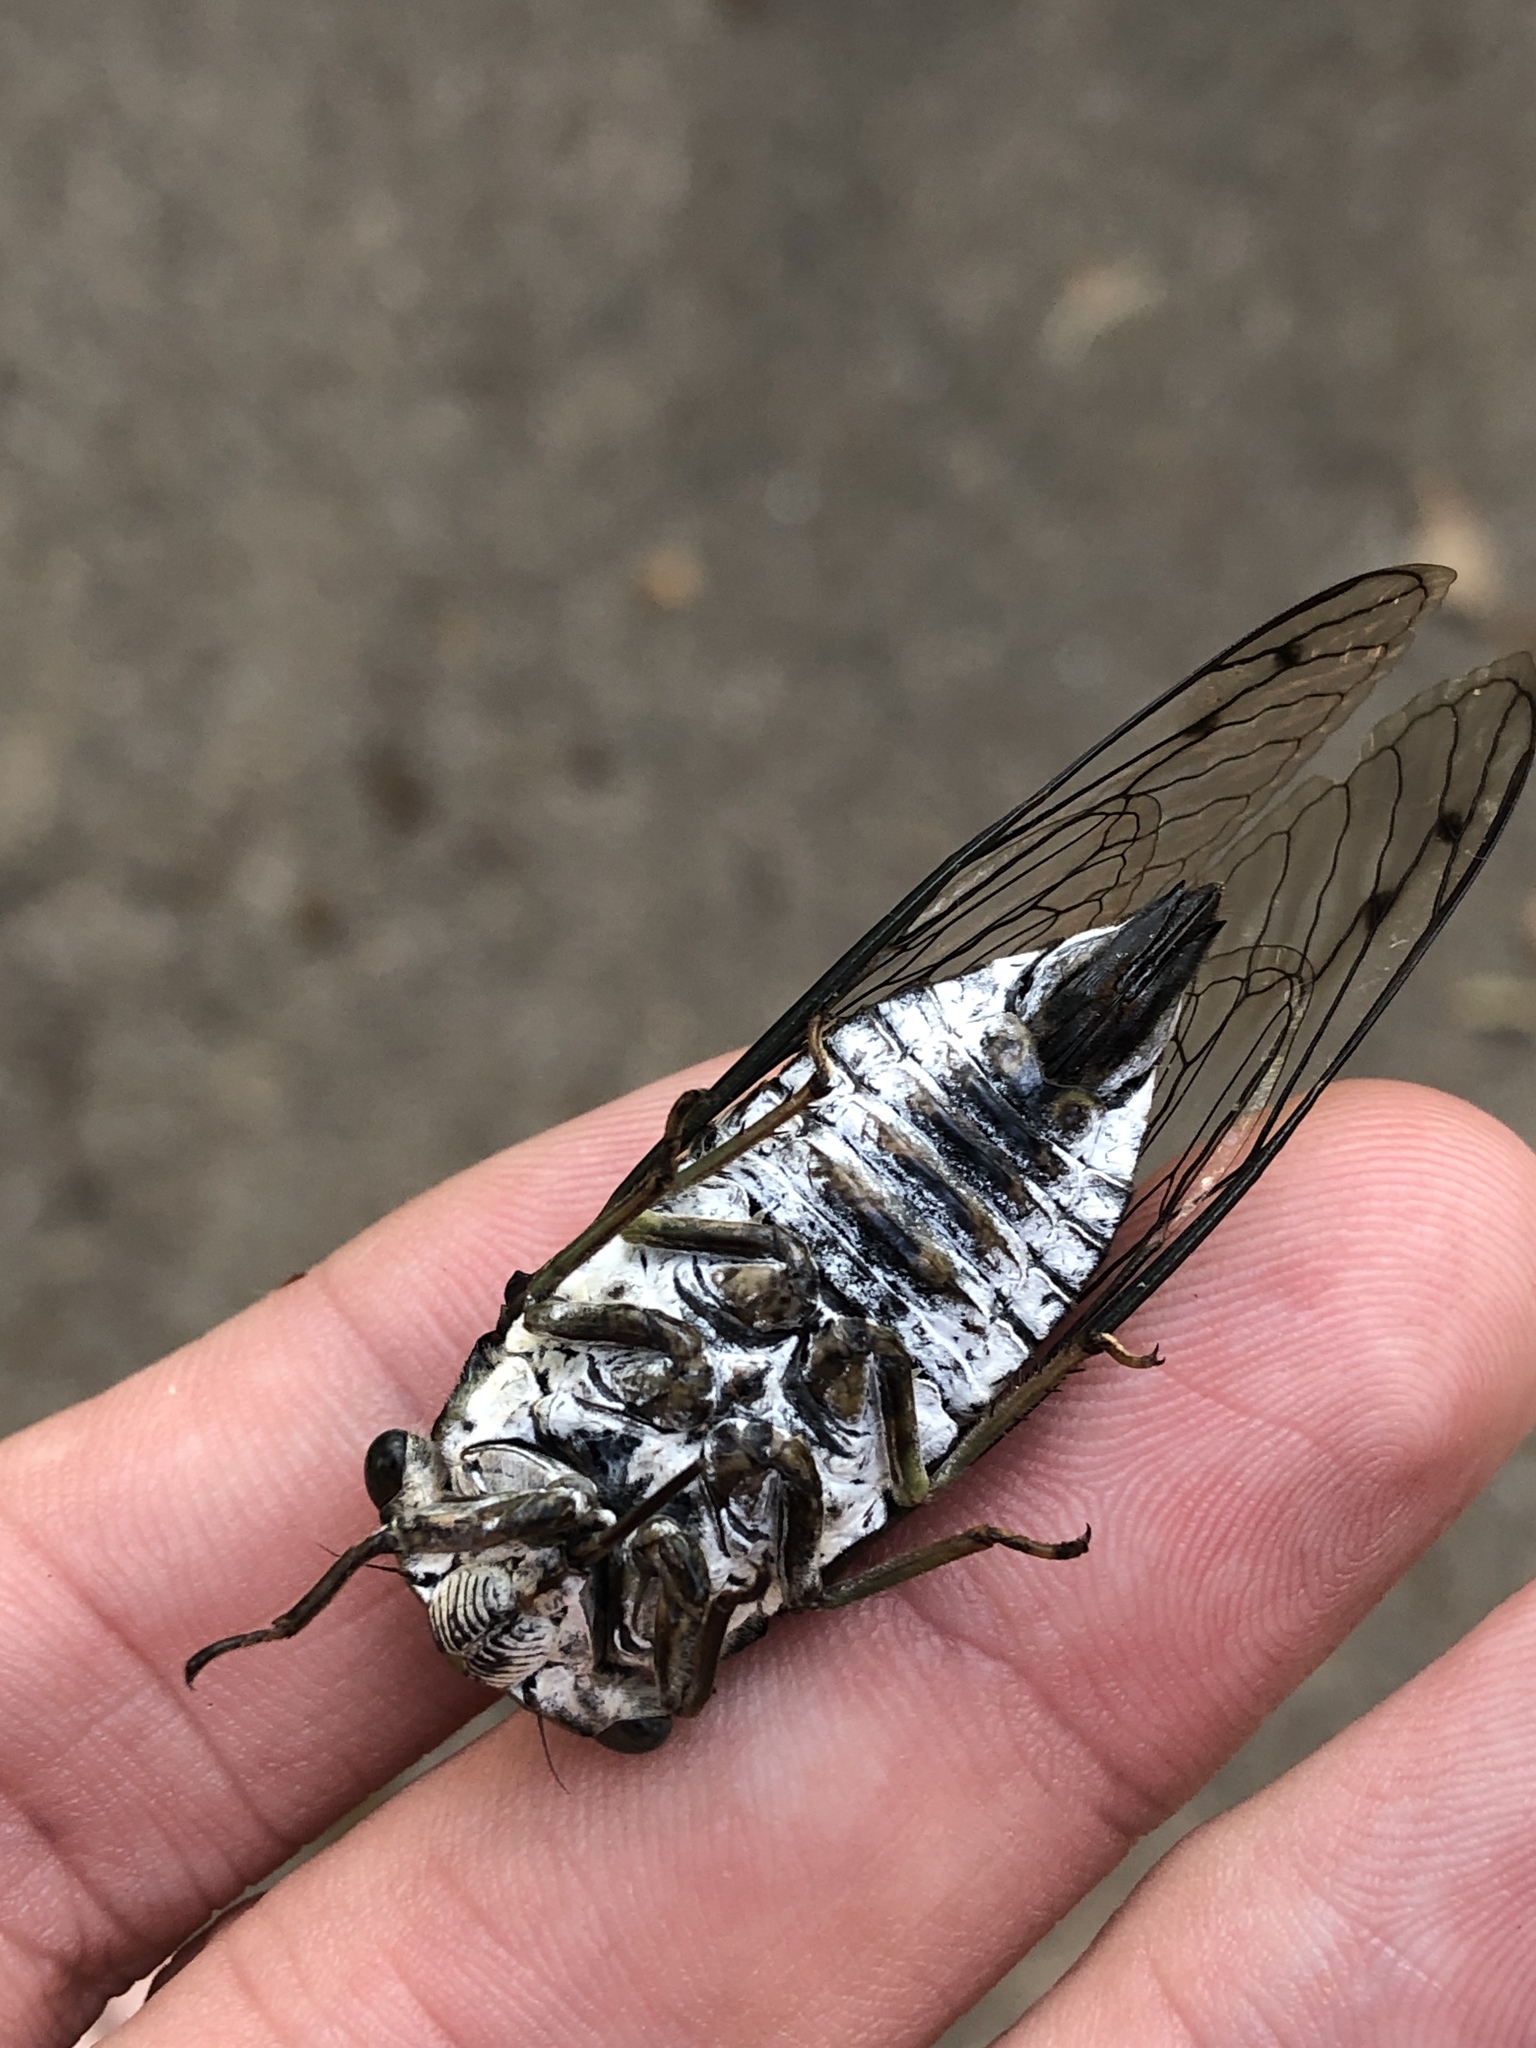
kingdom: Animalia
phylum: Arthropoda
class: Insecta
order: Hemiptera
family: Cicadidae
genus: Neotibicen
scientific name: Neotibicen pruinosus
